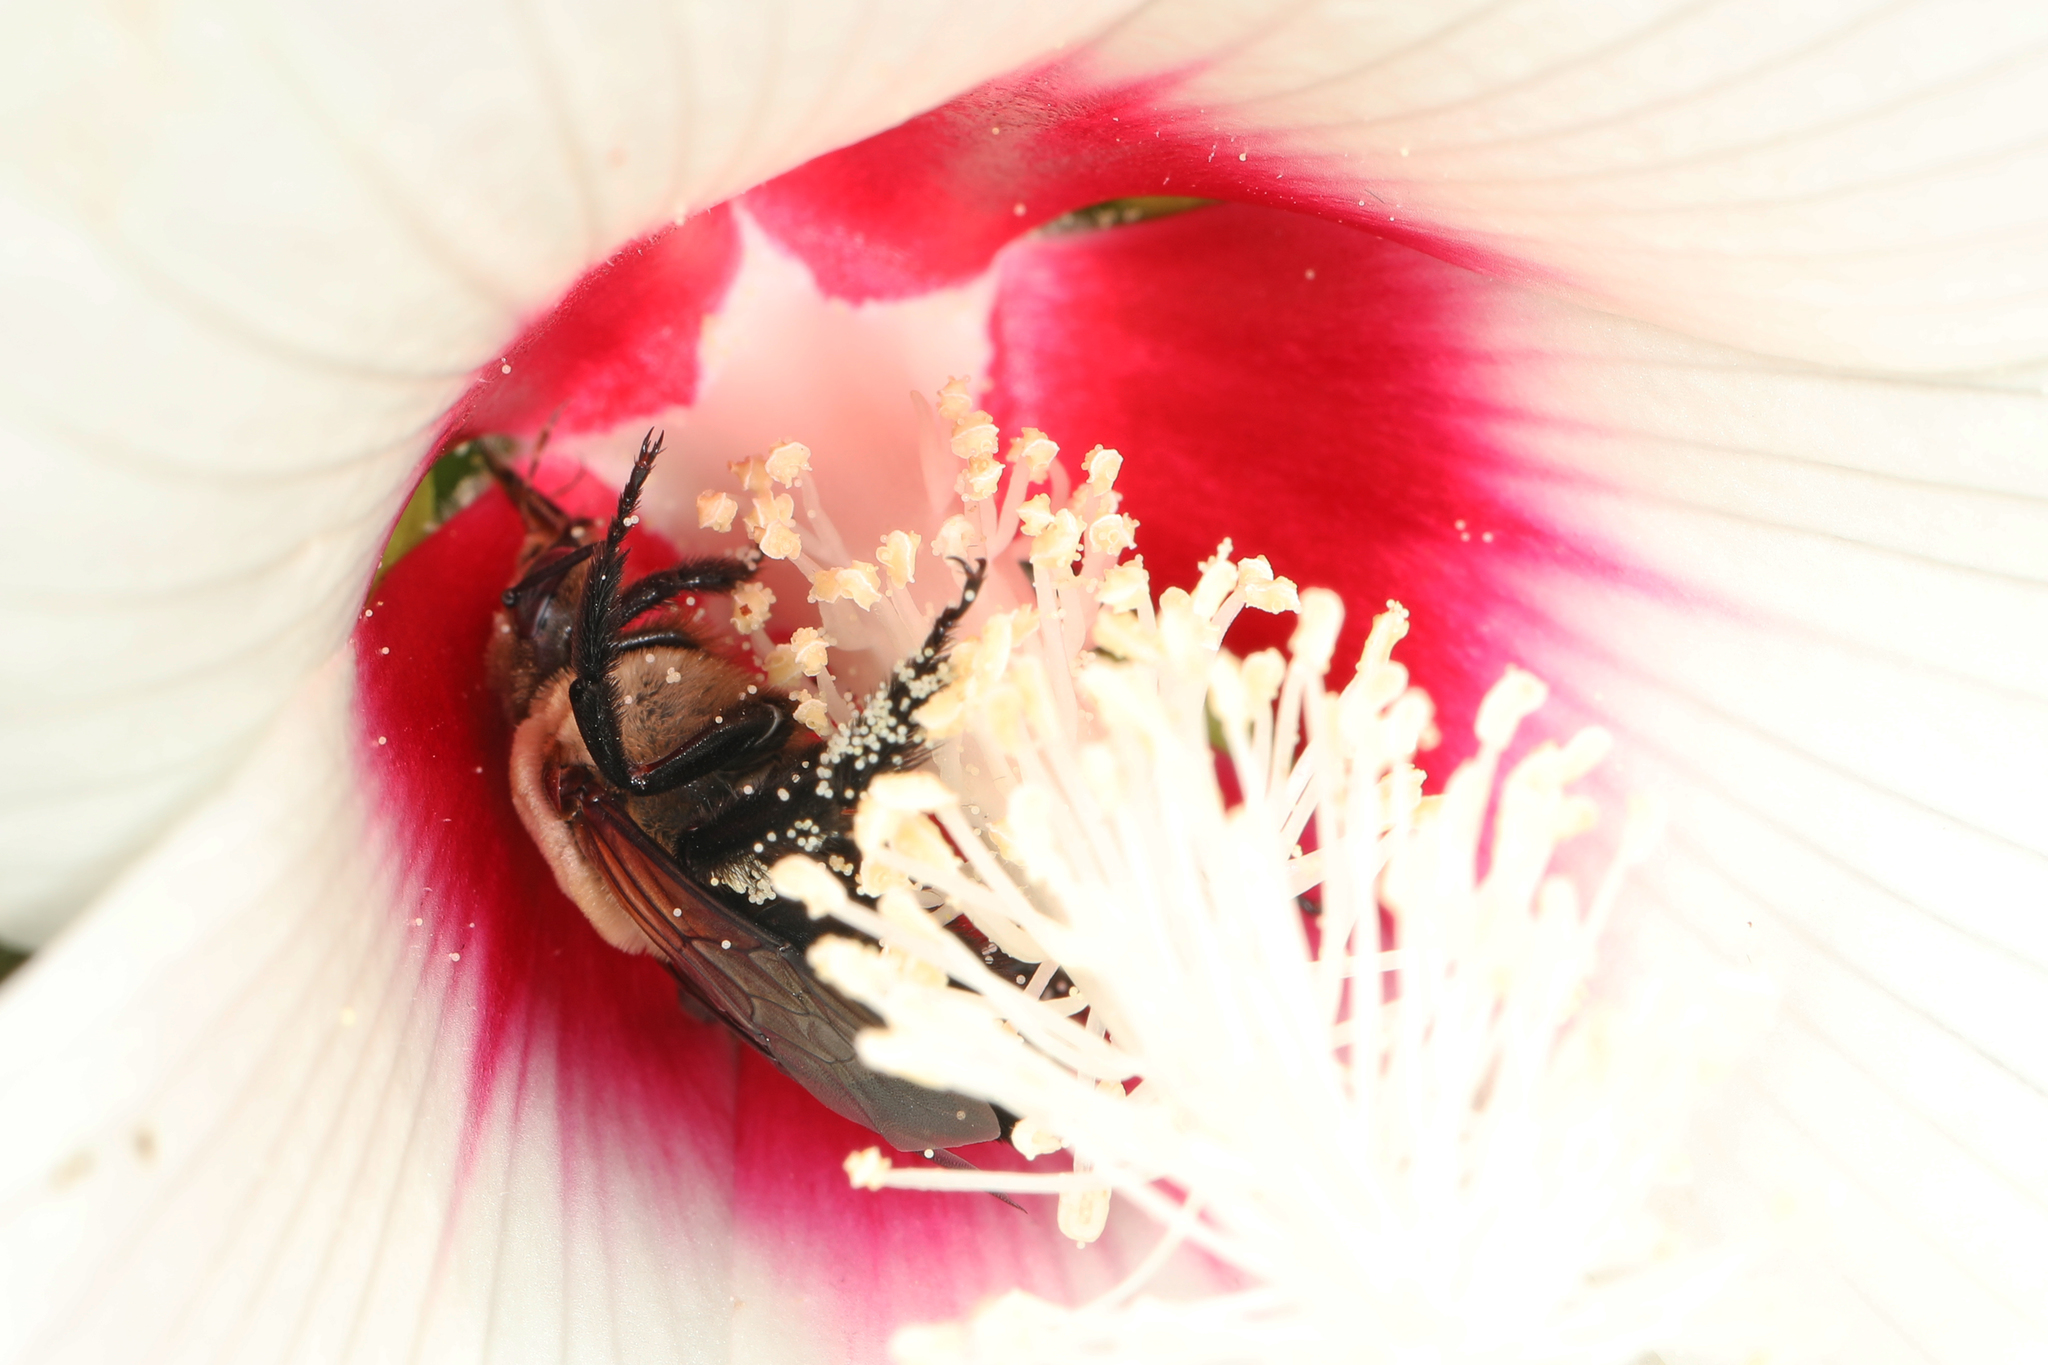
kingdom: Animalia
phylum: Arthropoda
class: Insecta
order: Hymenoptera
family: Apidae
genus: Ptilothrix
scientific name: Ptilothrix bombiformis
